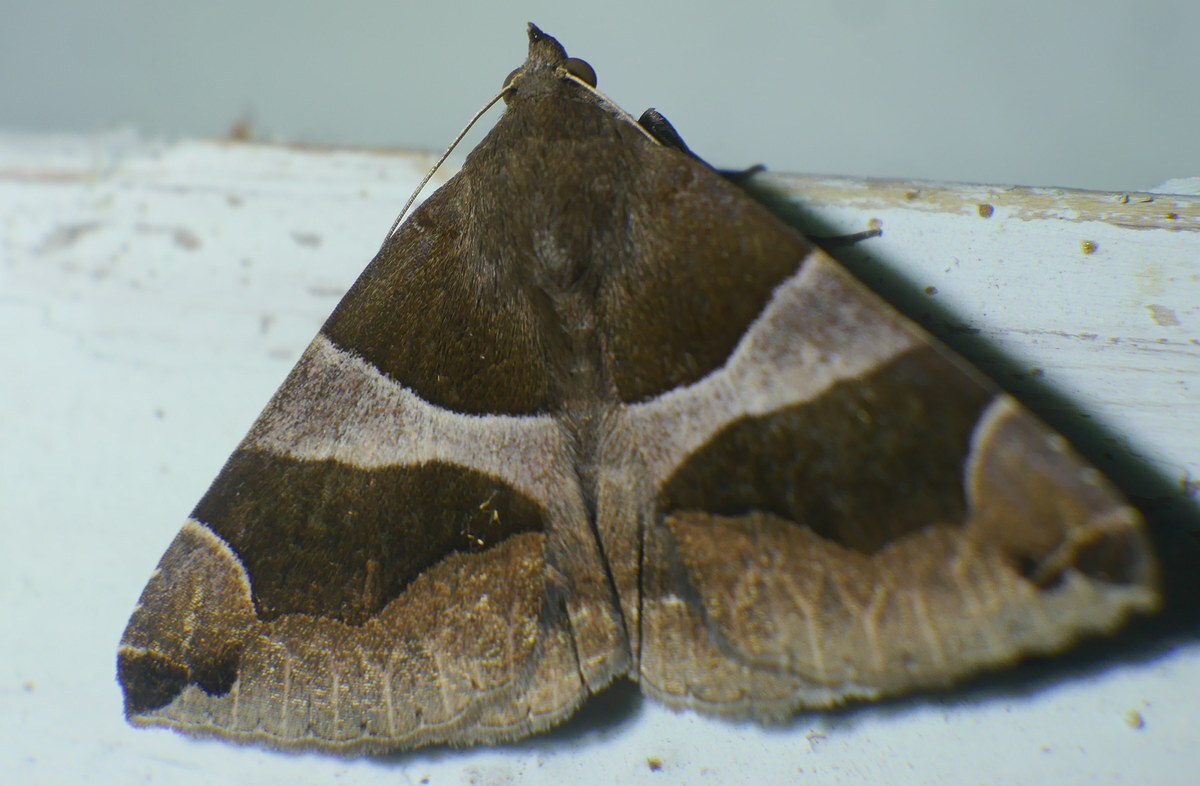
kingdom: Animalia
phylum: Arthropoda
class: Insecta
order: Lepidoptera
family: Erebidae
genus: Dysgonia
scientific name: Dysgonia algira
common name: Passenger
